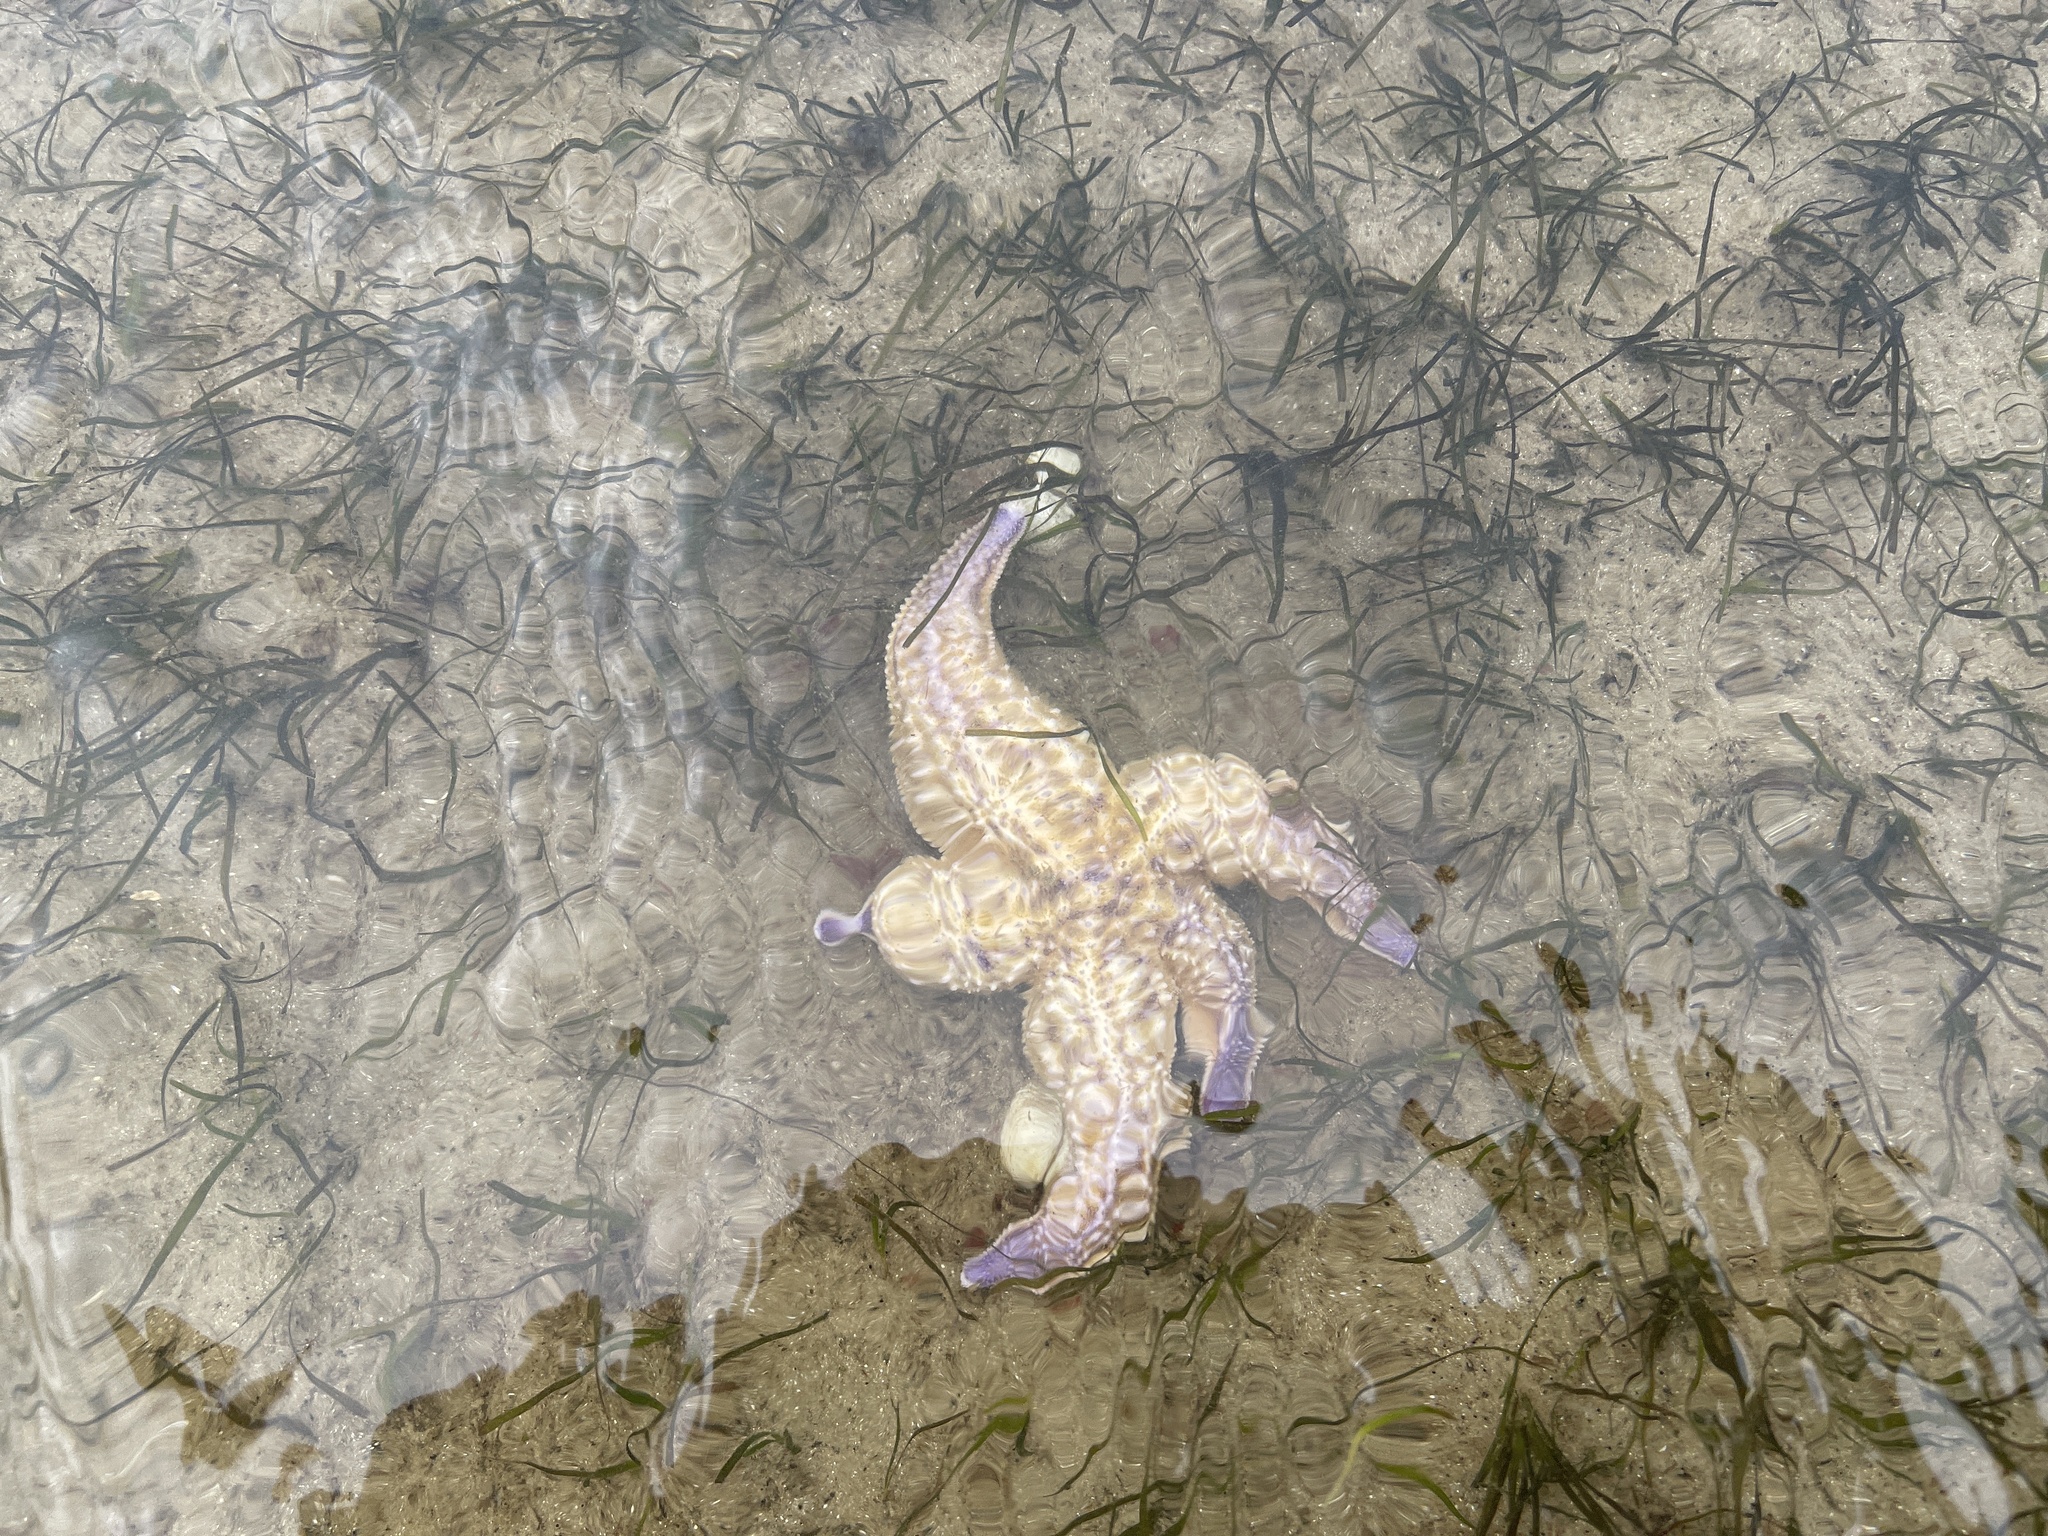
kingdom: Animalia
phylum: Echinodermata
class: Asteroidea
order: Forcipulatida
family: Asteriidae
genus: Asterias
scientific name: Asterias amurensis
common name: Flat-bottomed star
